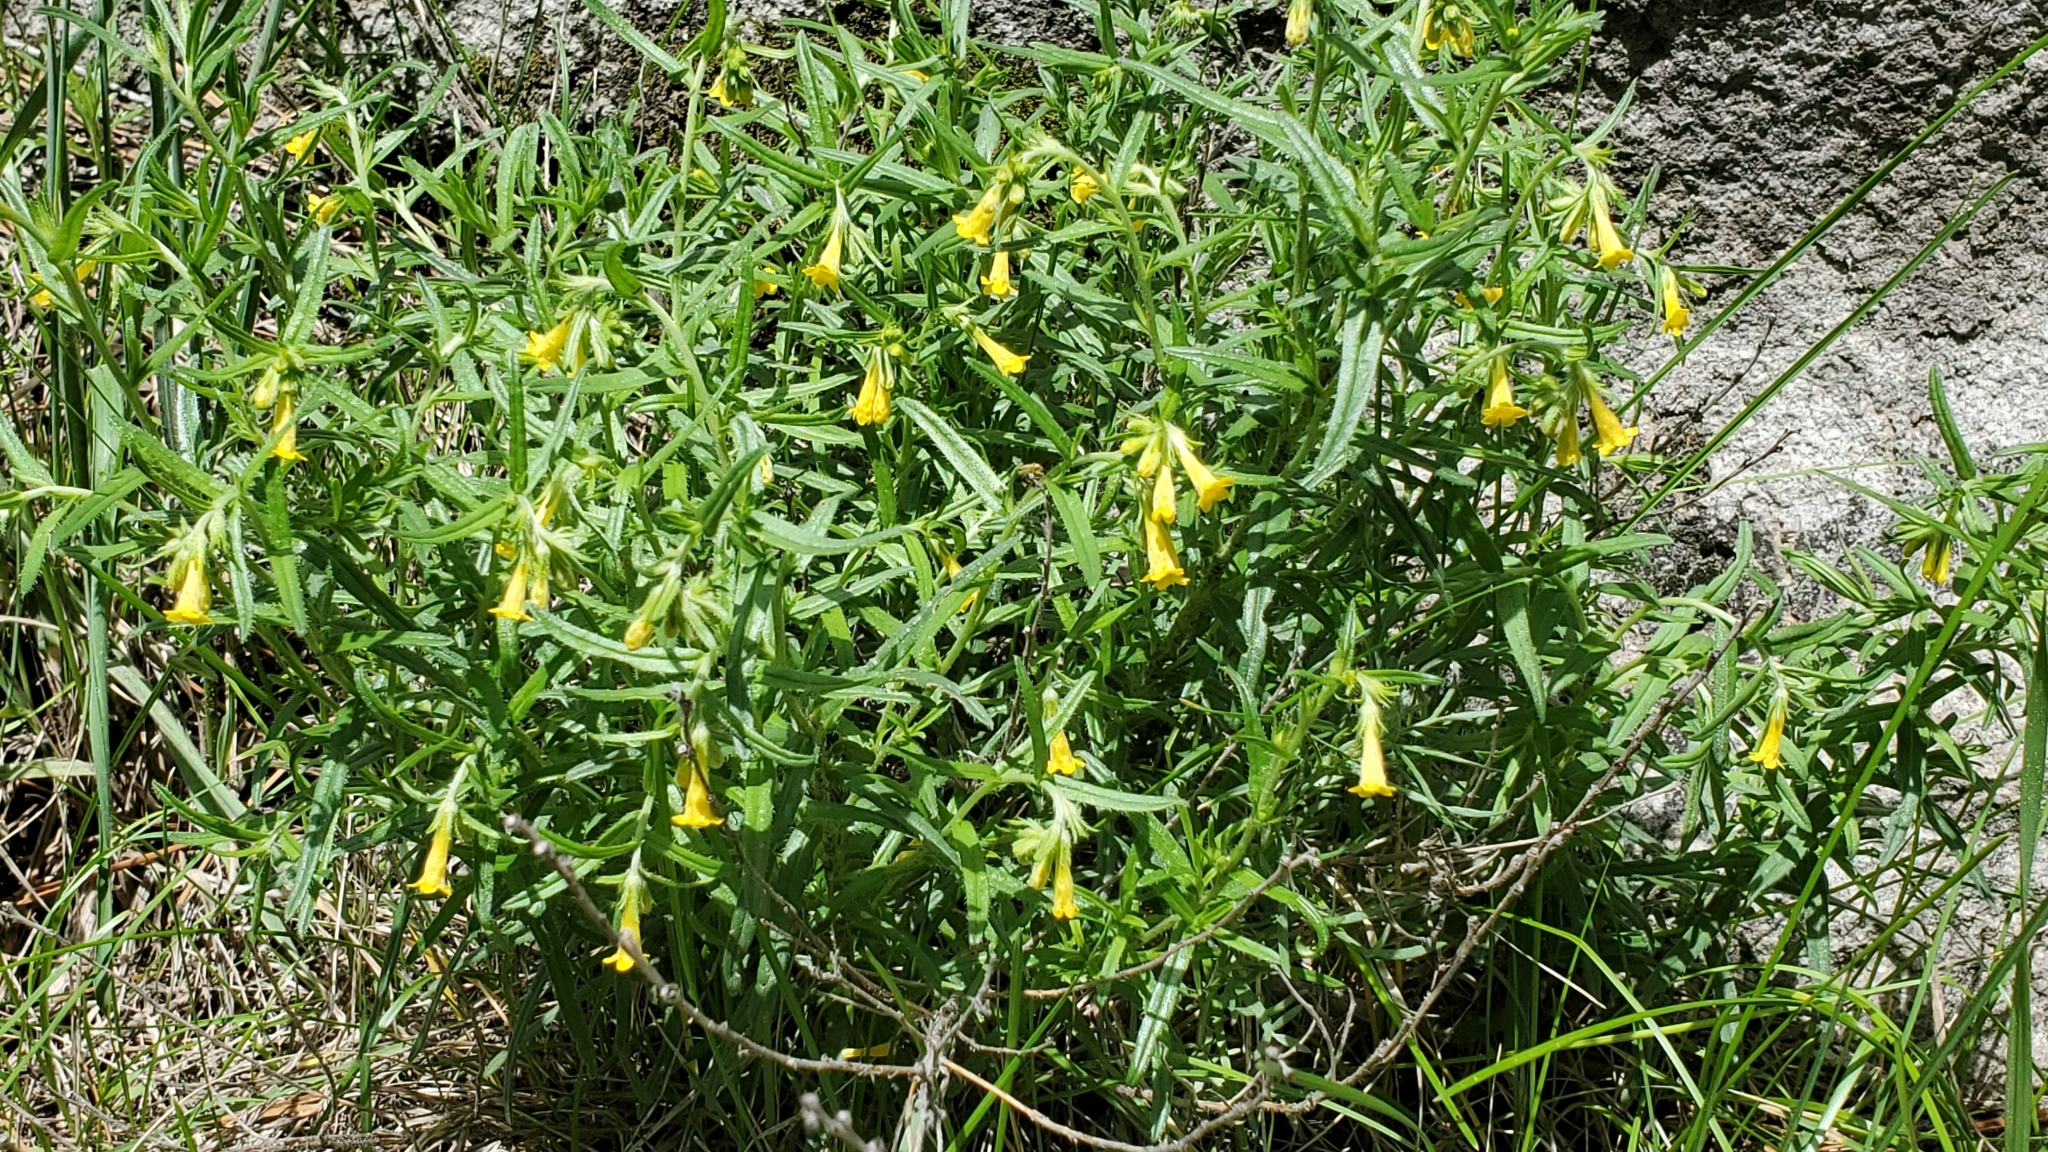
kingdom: Plantae
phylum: Tracheophyta
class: Magnoliopsida
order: Boraginales
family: Boraginaceae
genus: Lithospermum
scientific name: Lithospermum multiflorum
